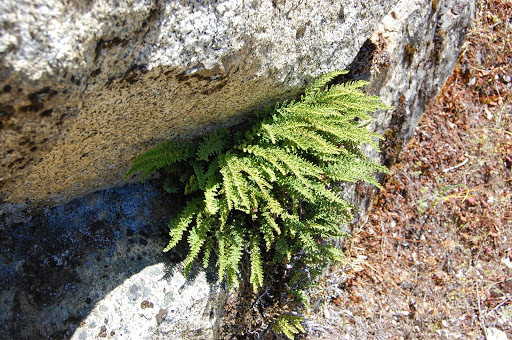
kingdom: Plantae
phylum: Tracheophyta
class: Polypodiopsida
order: Polypodiales
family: Pteridaceae
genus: Myriopteris
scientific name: Myriopteris gracillima
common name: Lace fern
